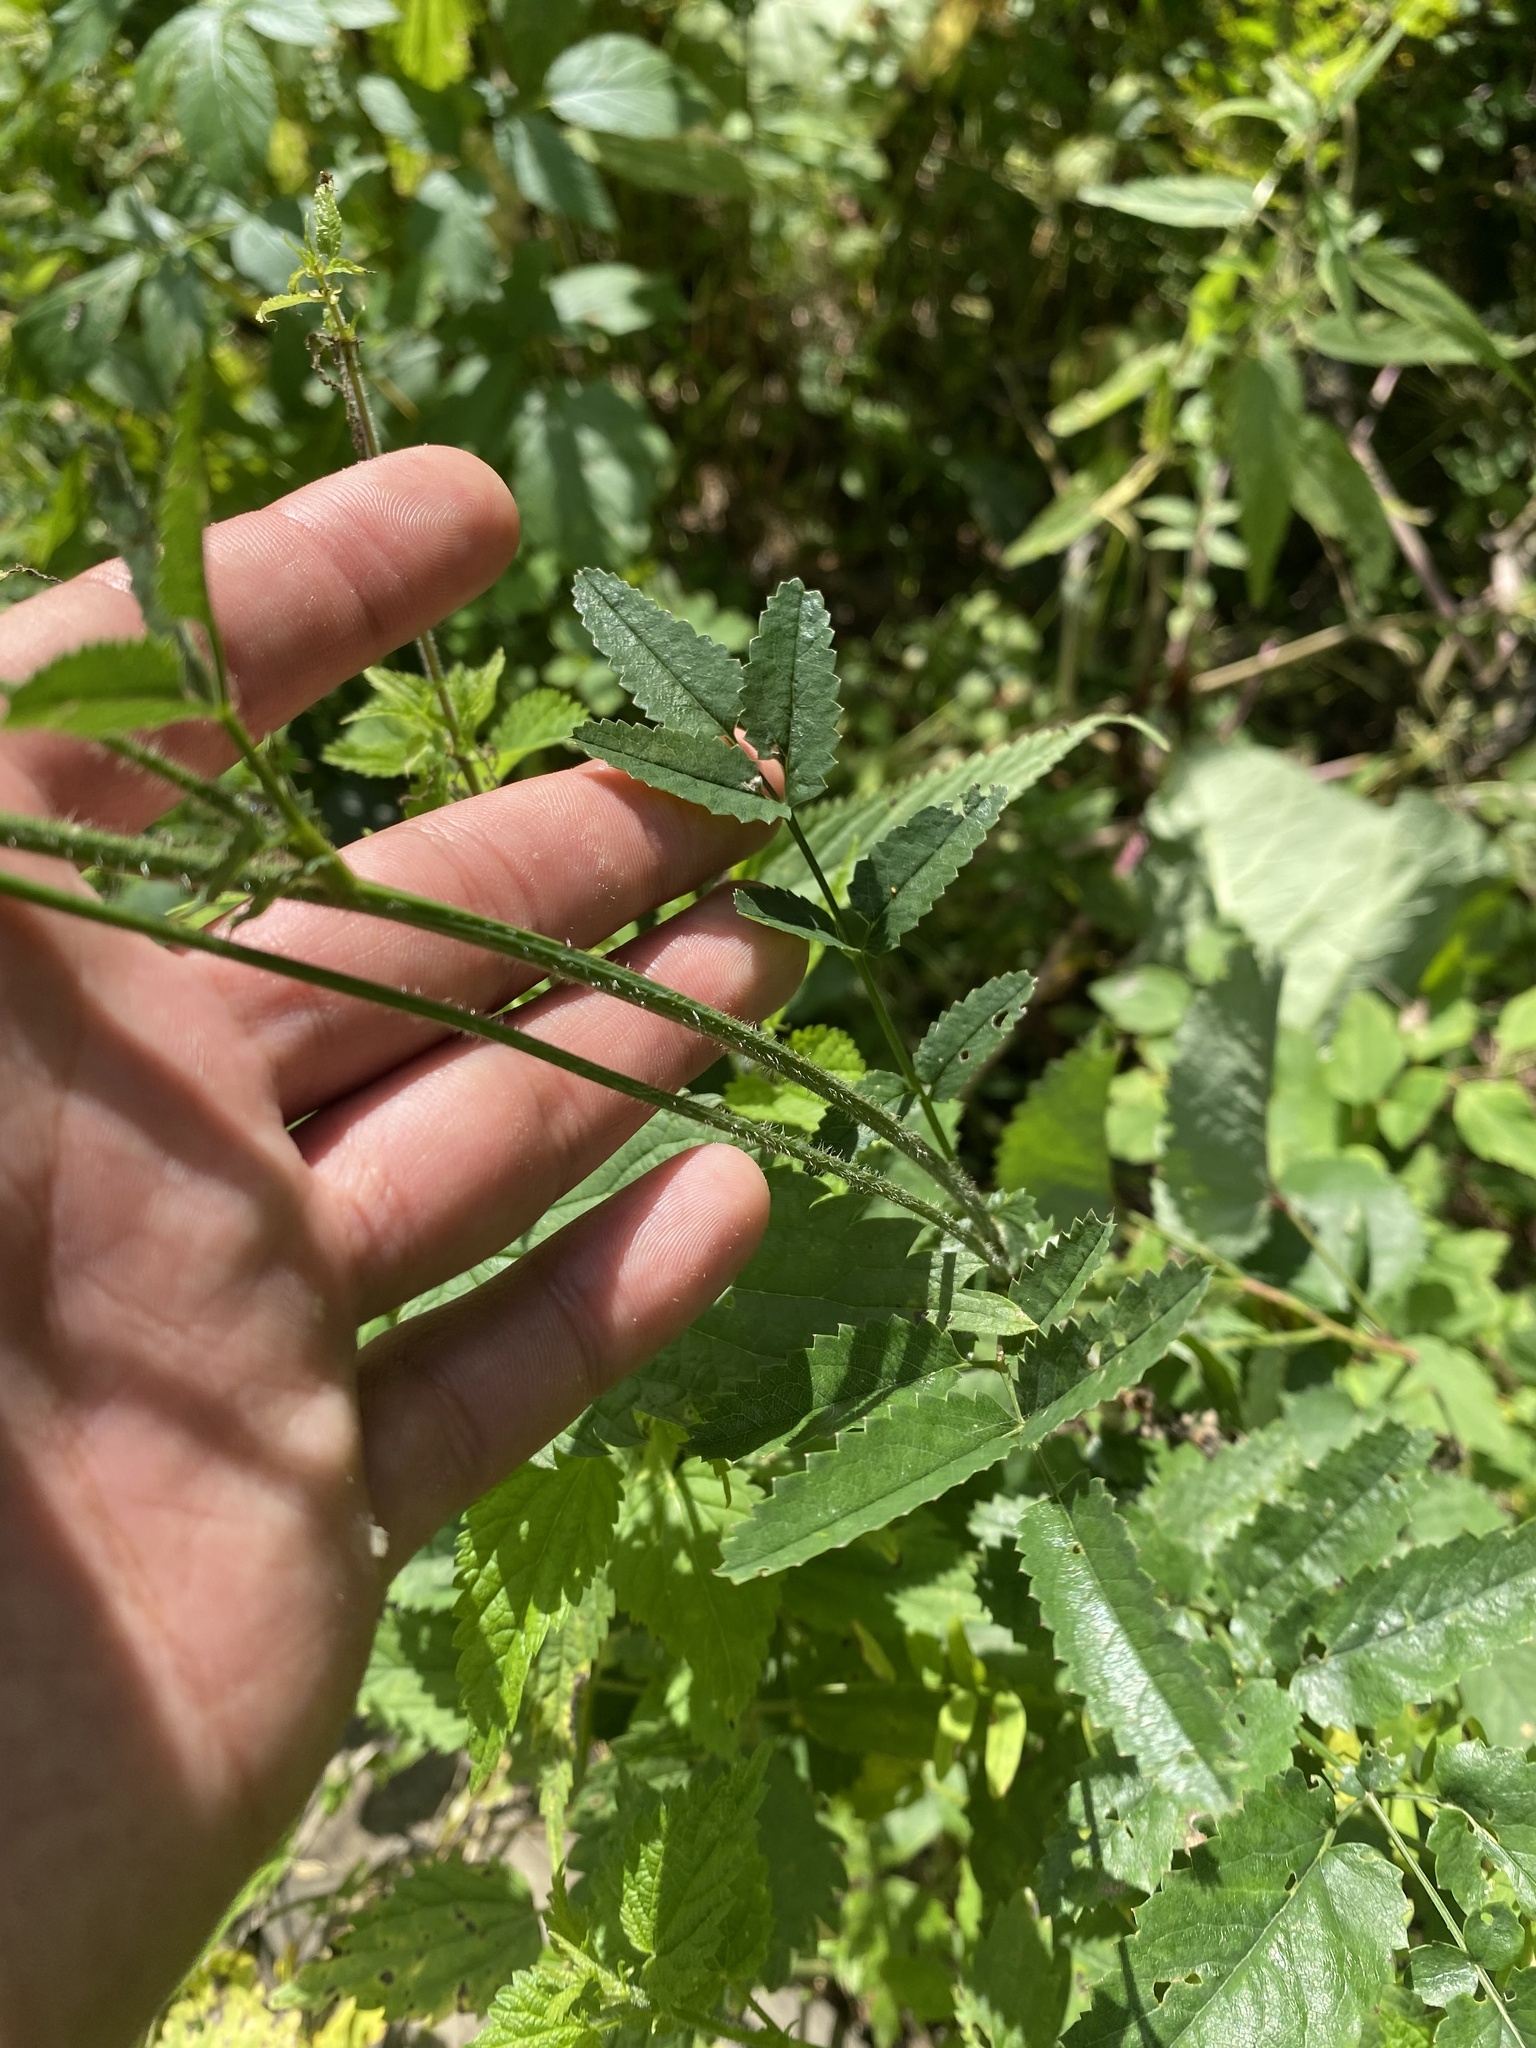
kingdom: Plantae
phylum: Tracheophyta
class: Magnoliopsida
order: Rosales
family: Rosaceae
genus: Sanguisorba
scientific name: Sanguisorba officinalis
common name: Great burnet
